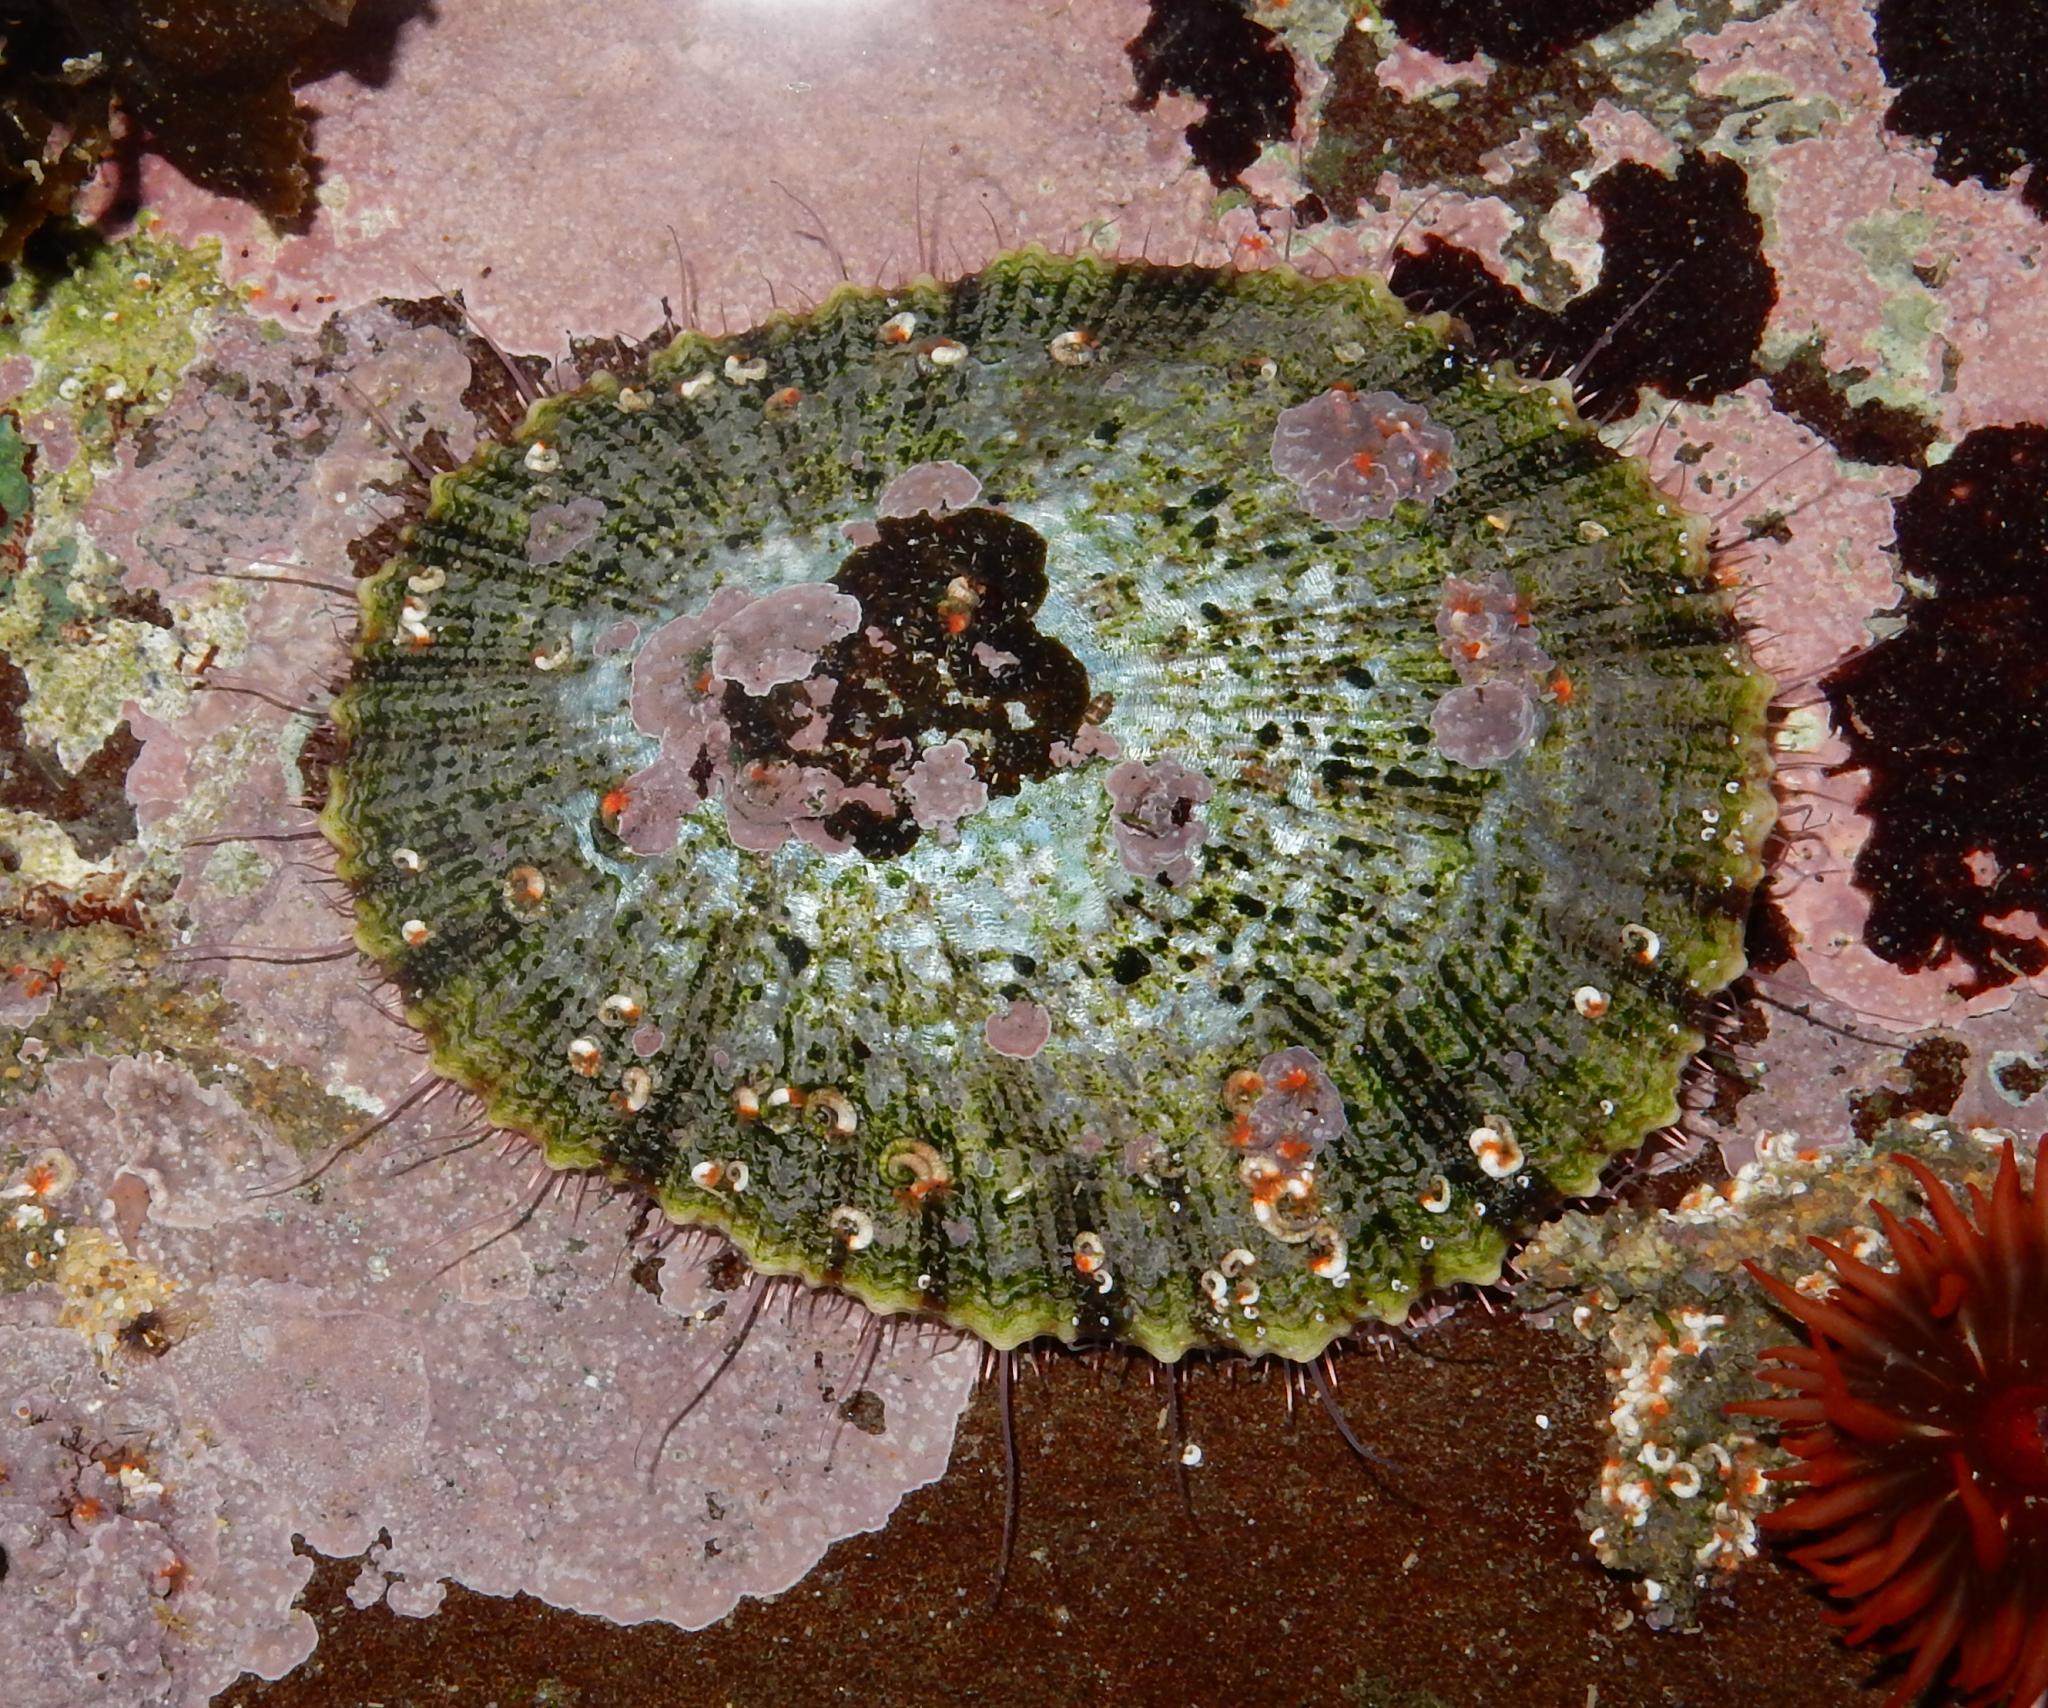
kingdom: Animalia
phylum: Mollusca
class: Gastropoda
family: Patellidae
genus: Scutellastra
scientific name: Scutellastra argenvillei
